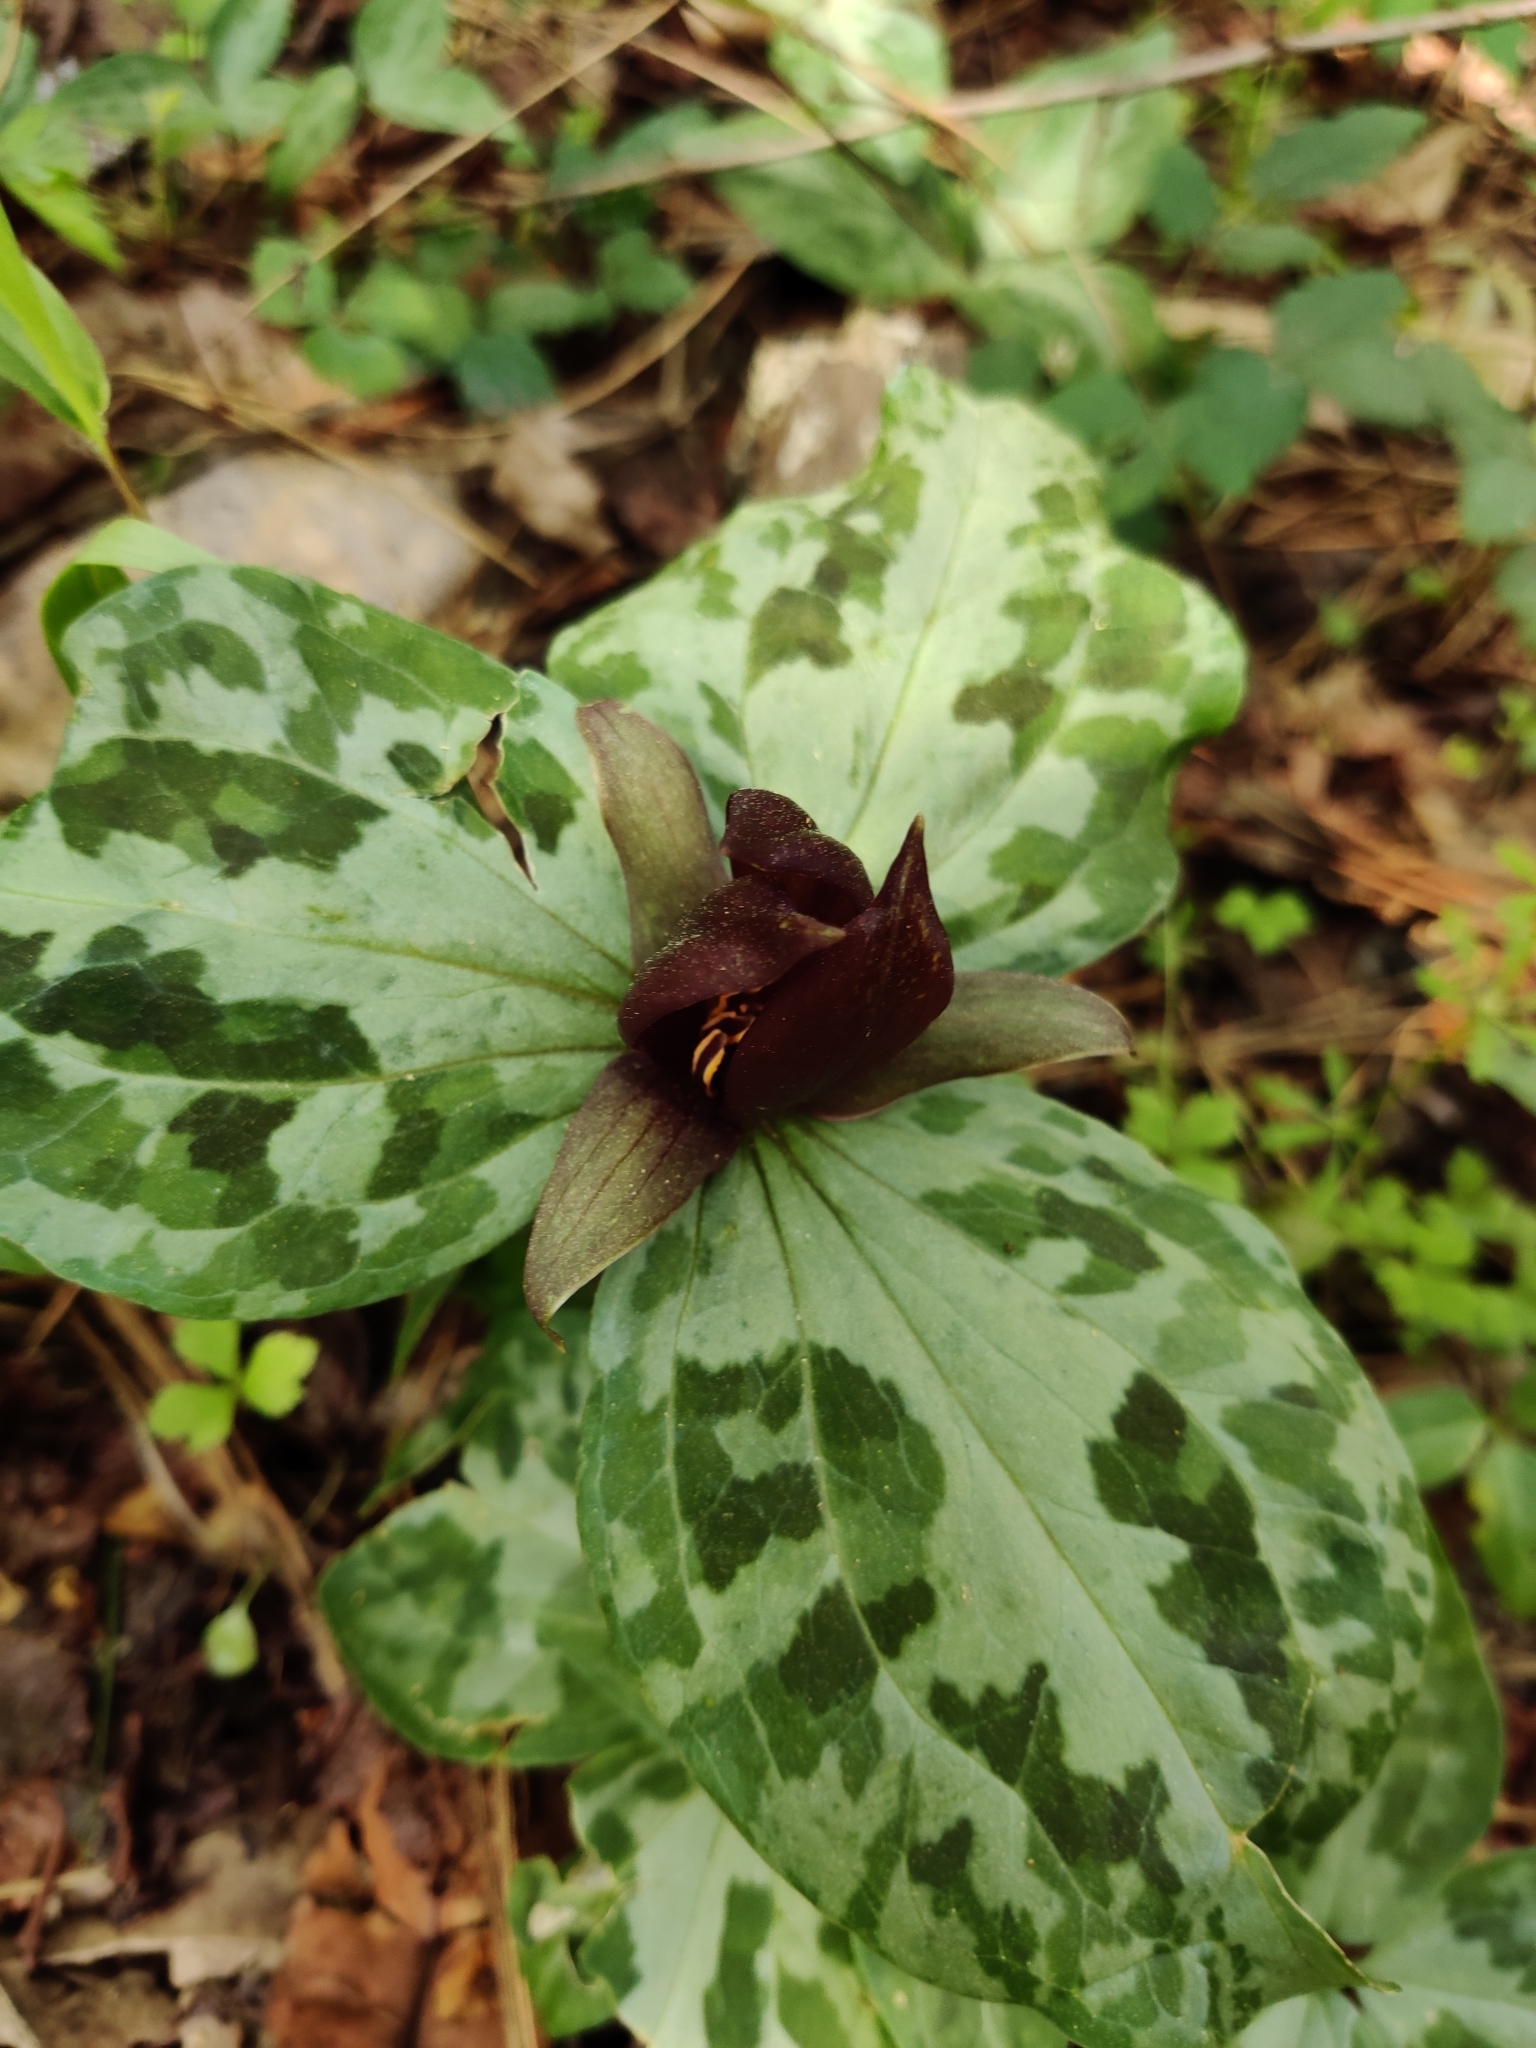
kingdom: Plantae
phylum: Tracheophyta
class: Liliopsida
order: Liliales
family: Melanthiaceae
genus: Trillium
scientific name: Trillium underwoodii
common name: Longbract wakerobin
